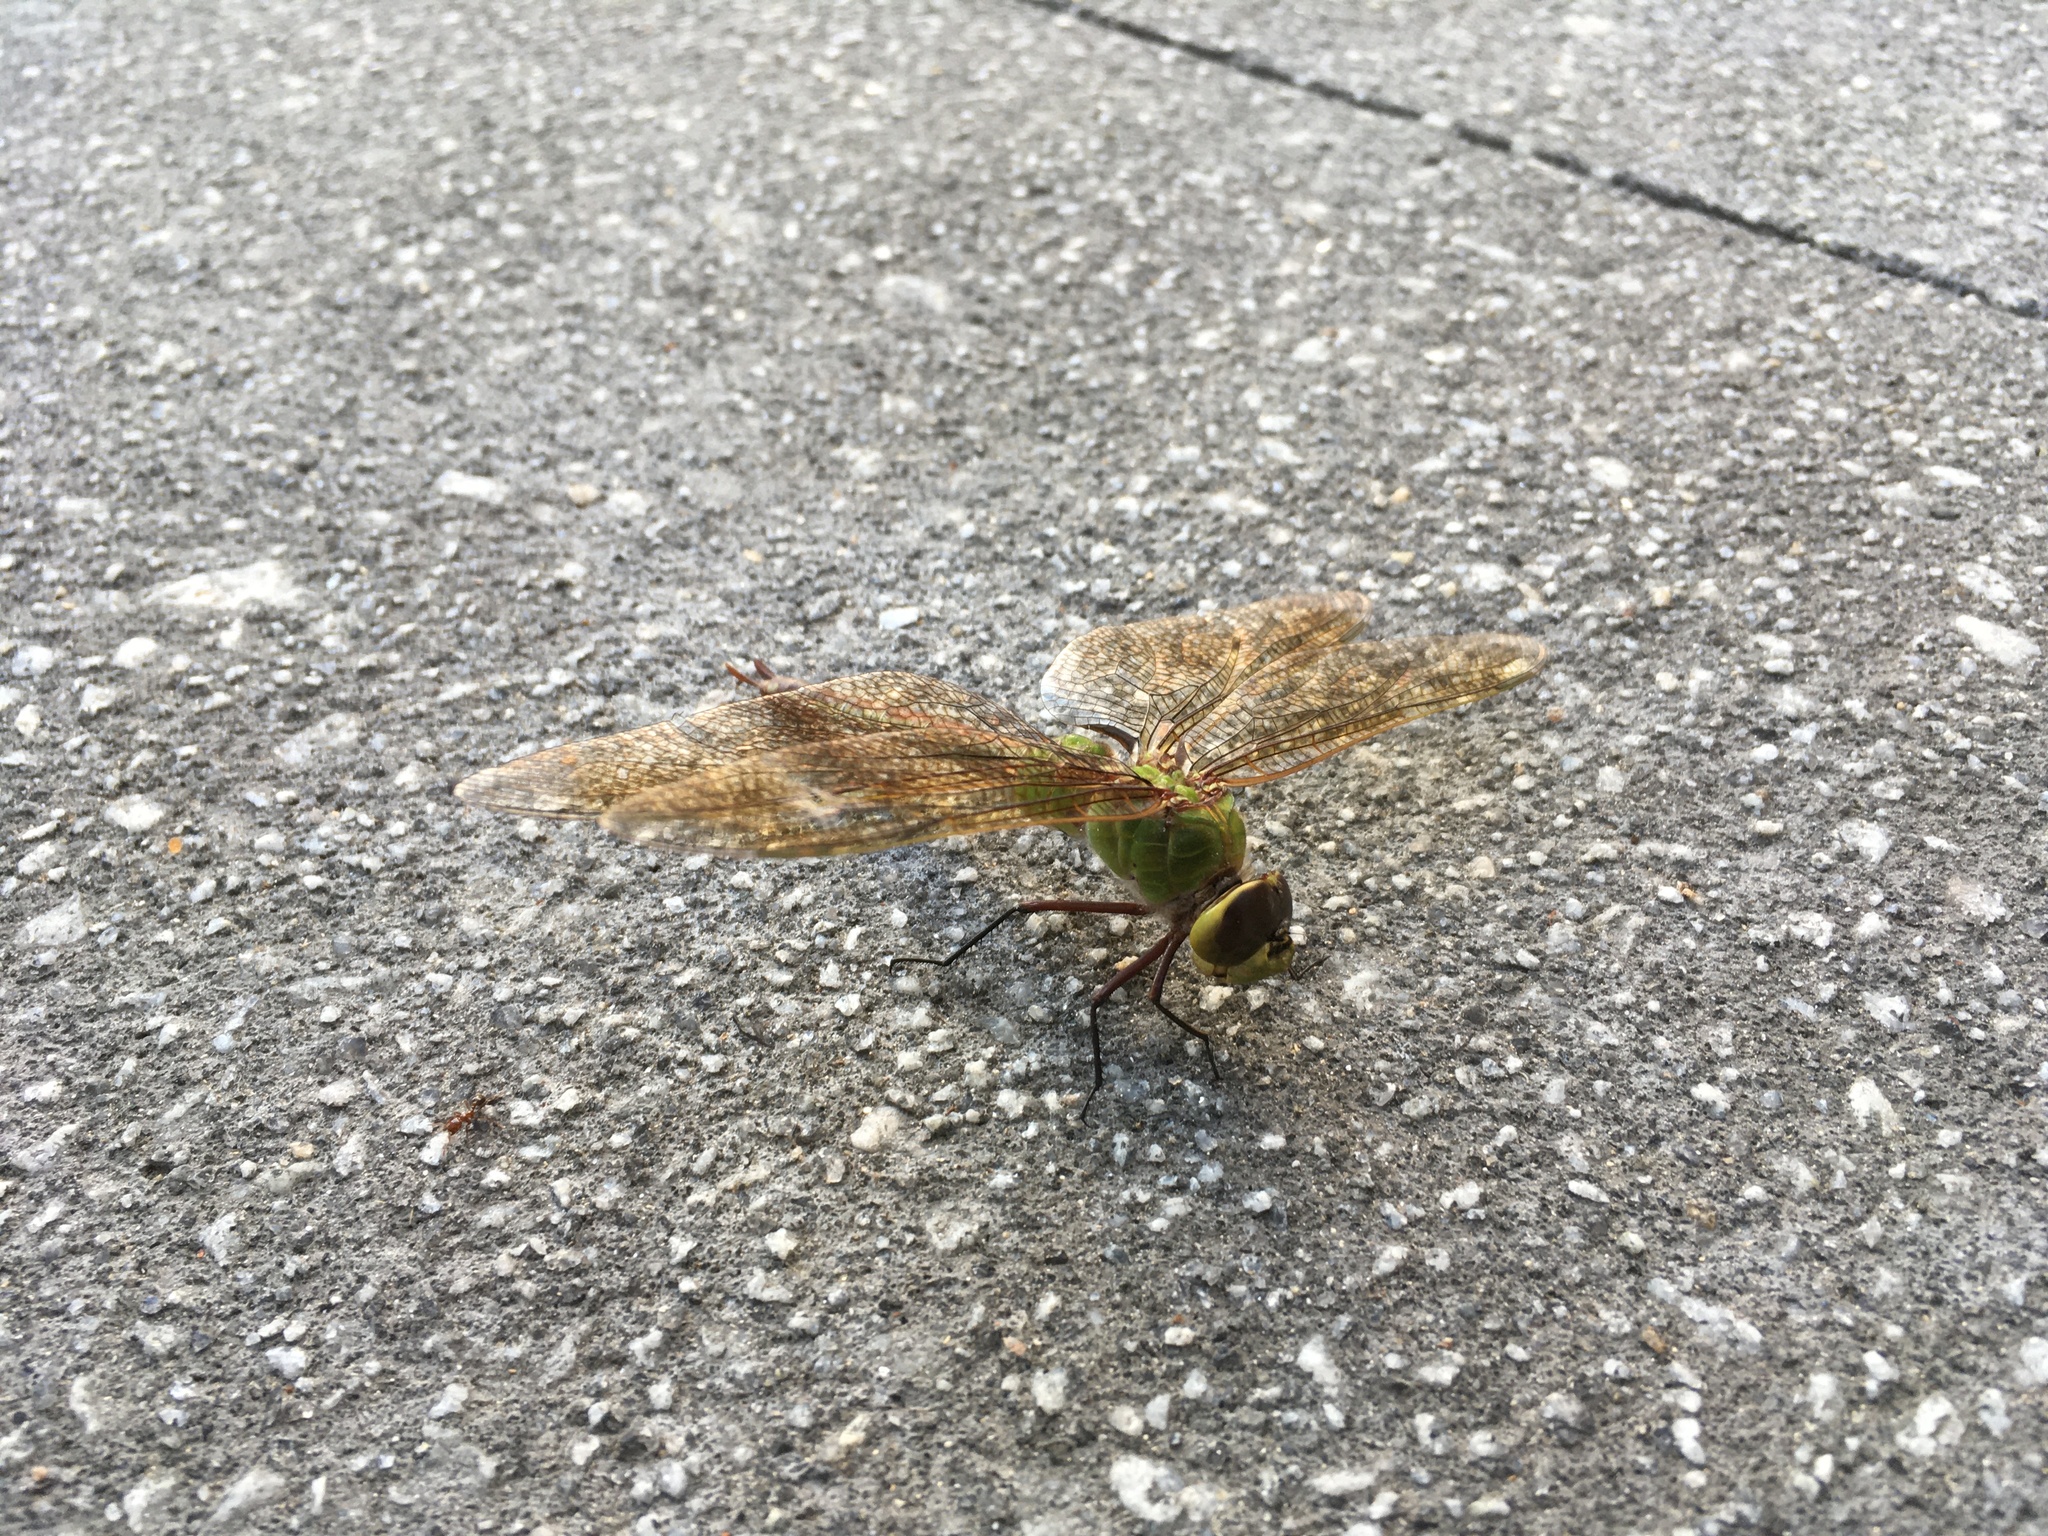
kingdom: Animalia
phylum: Arthropoda
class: Insecta
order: Odonata
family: Aeshnidae
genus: Anax
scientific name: Anax junius
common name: Common green darner
